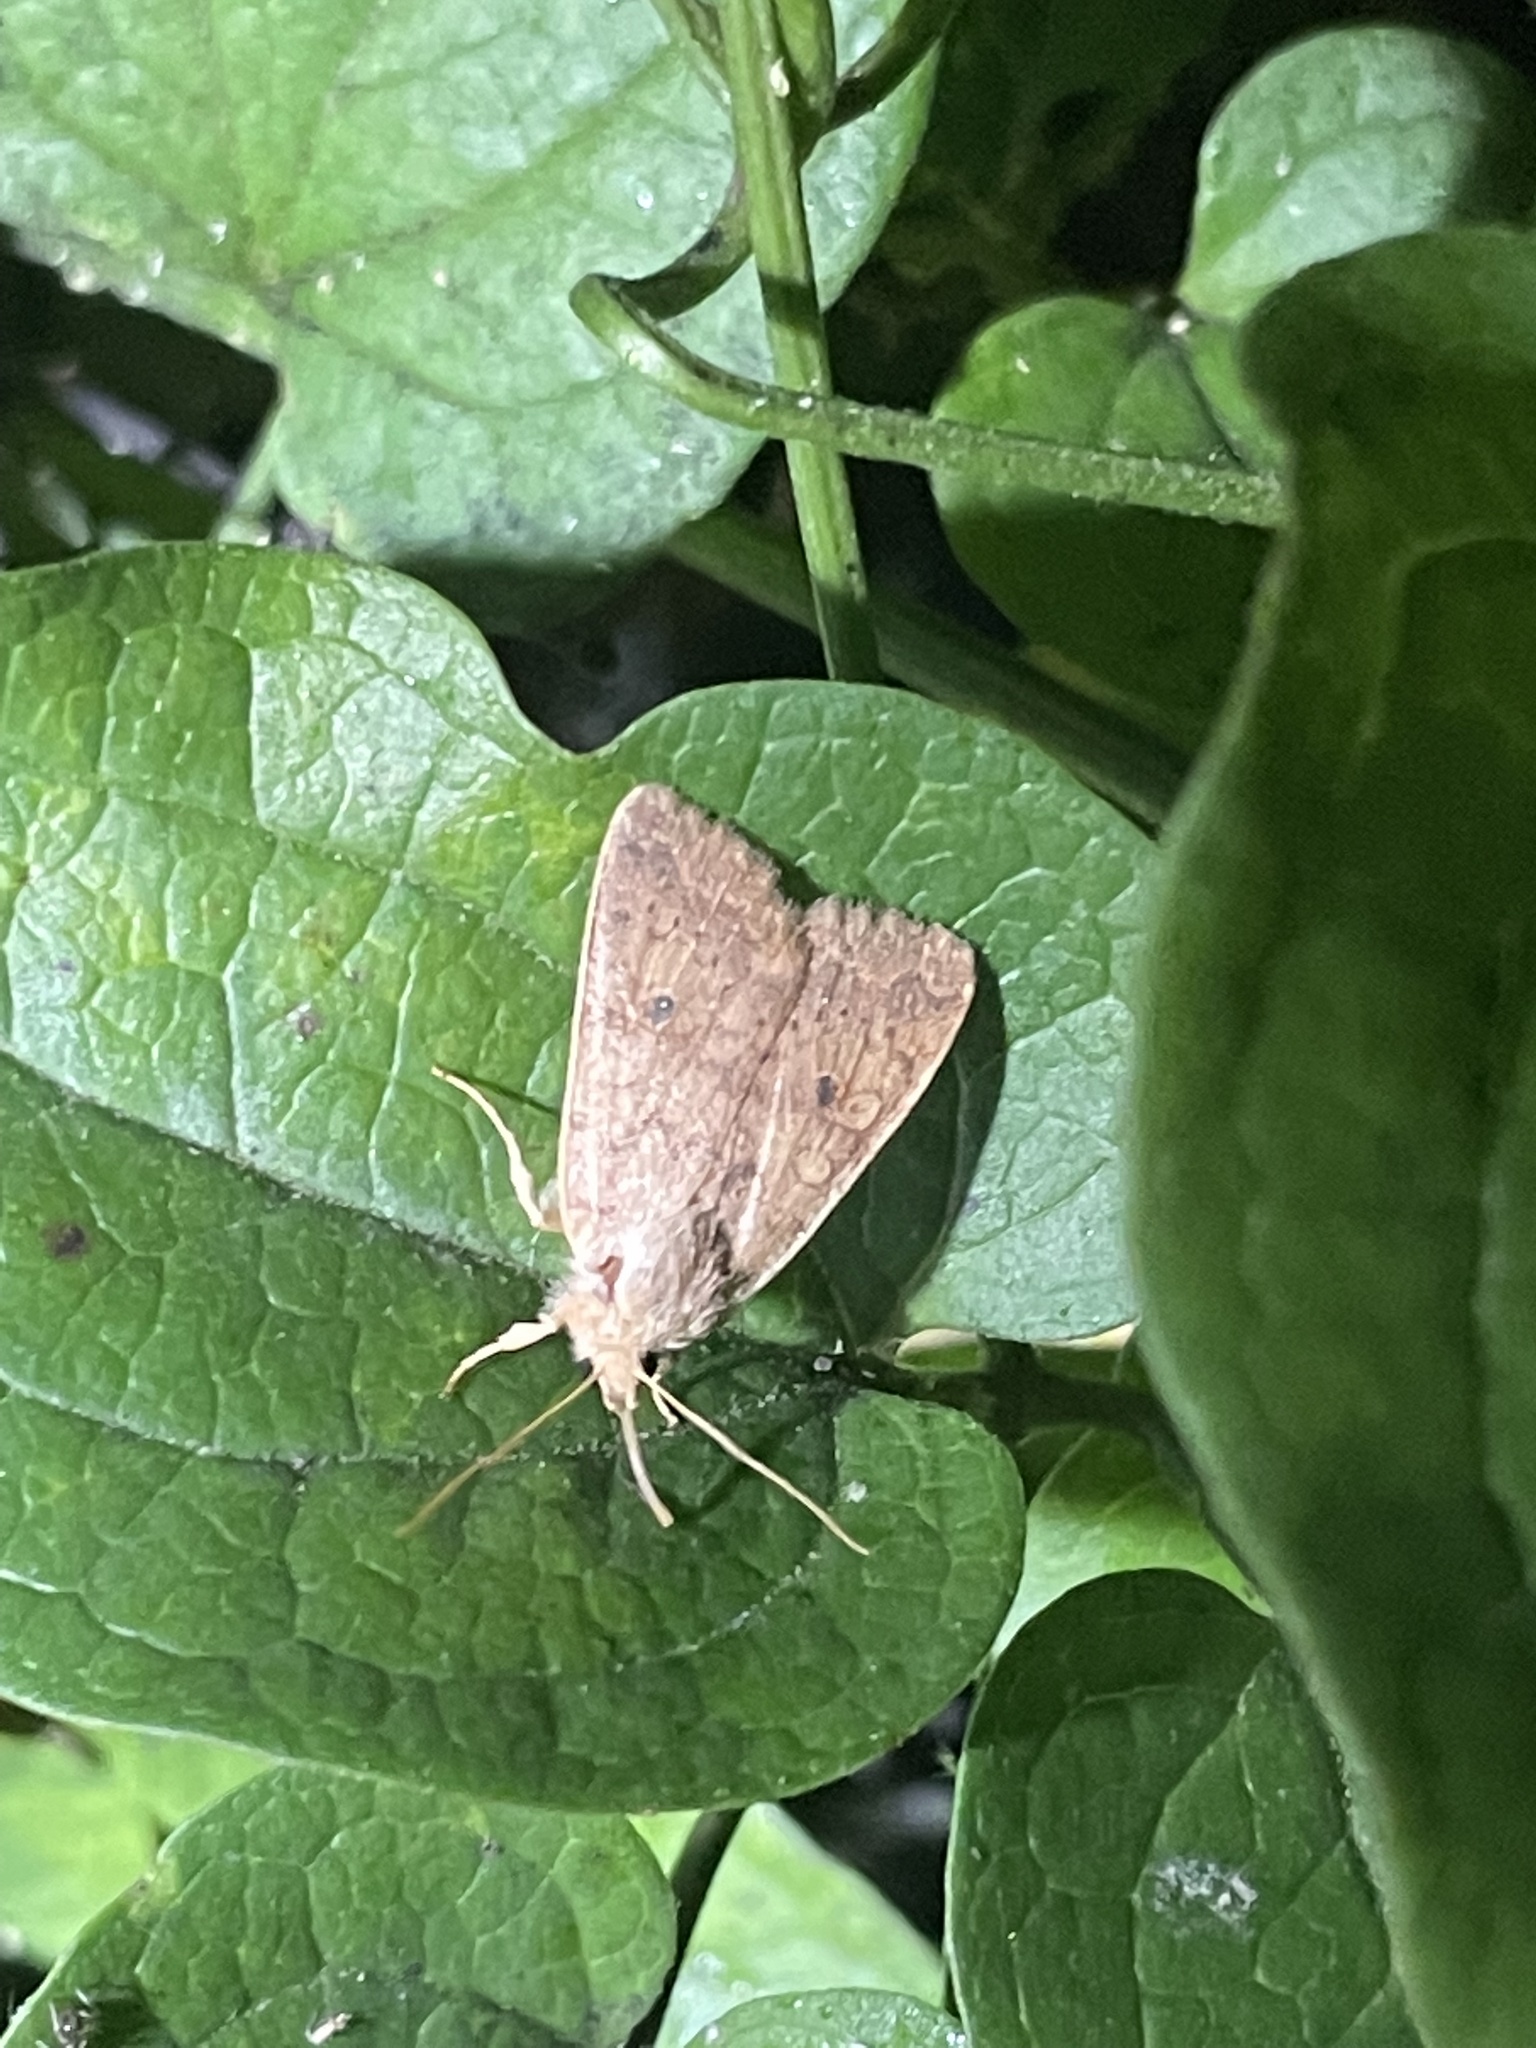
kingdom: Animalia
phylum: Arthropoda
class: Insecta
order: Lepidoptera
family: Noctuidae
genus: Agrochola
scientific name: Agrochola bicolorago
